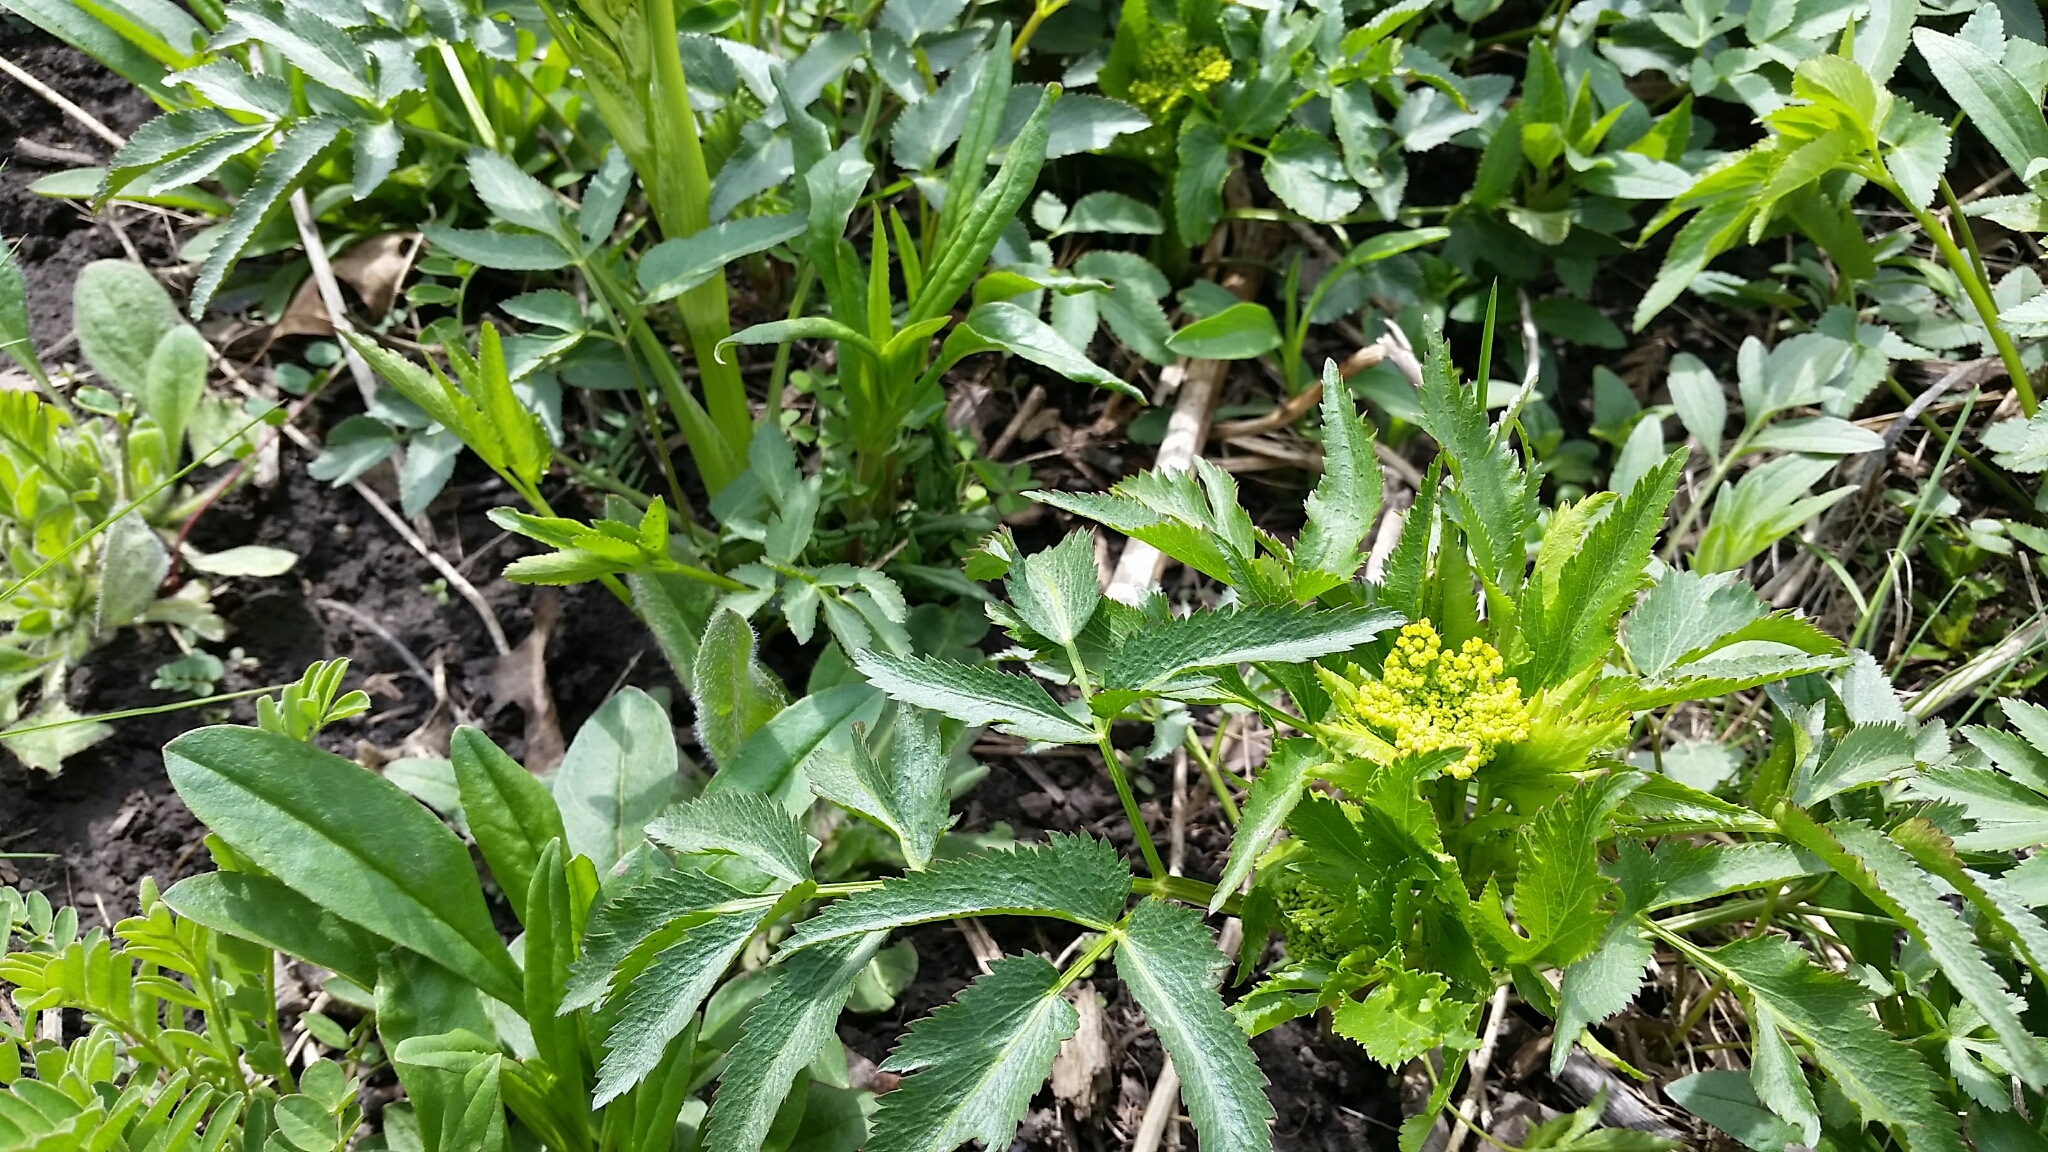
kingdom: Plantae
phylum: Tracheophyta
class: Magnoliopsida
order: Apiales
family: Apiaceae
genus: Zizia
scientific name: Zizia aurea
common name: Golden alexanders
